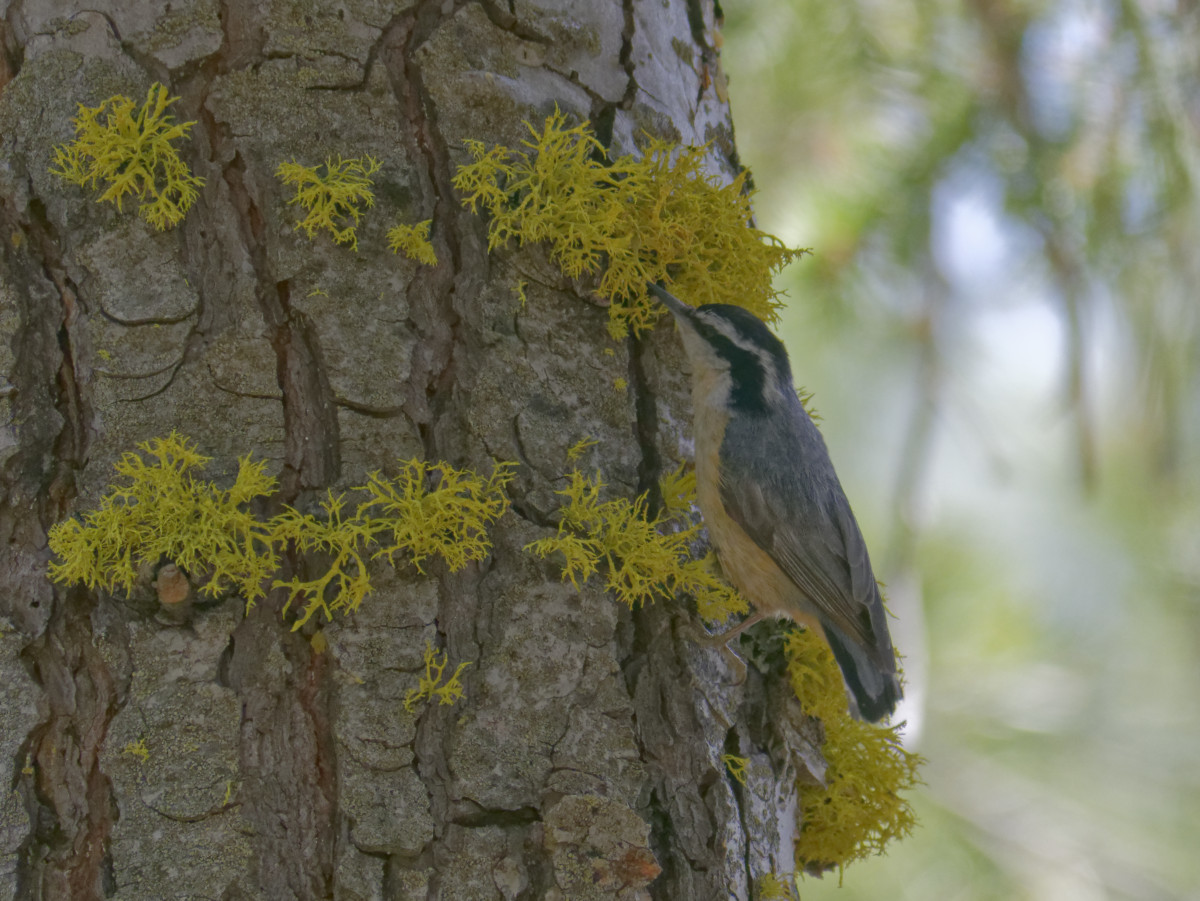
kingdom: Animalia
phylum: Chordata
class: Aves
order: Passeriformes
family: Sittidae
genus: Sitta
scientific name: Sitta canadensis
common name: Red-breasted nuthatch
